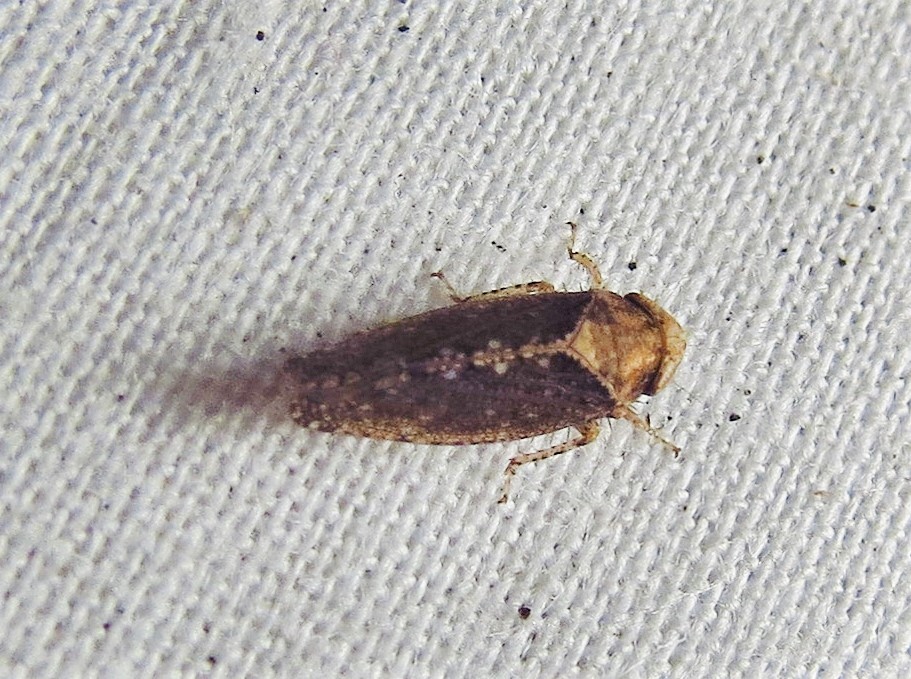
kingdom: Animalia
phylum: Arthropoda
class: Insecta
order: Hemiptera
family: Cicadellidae
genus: Excultanus
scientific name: Excultanus excultus
